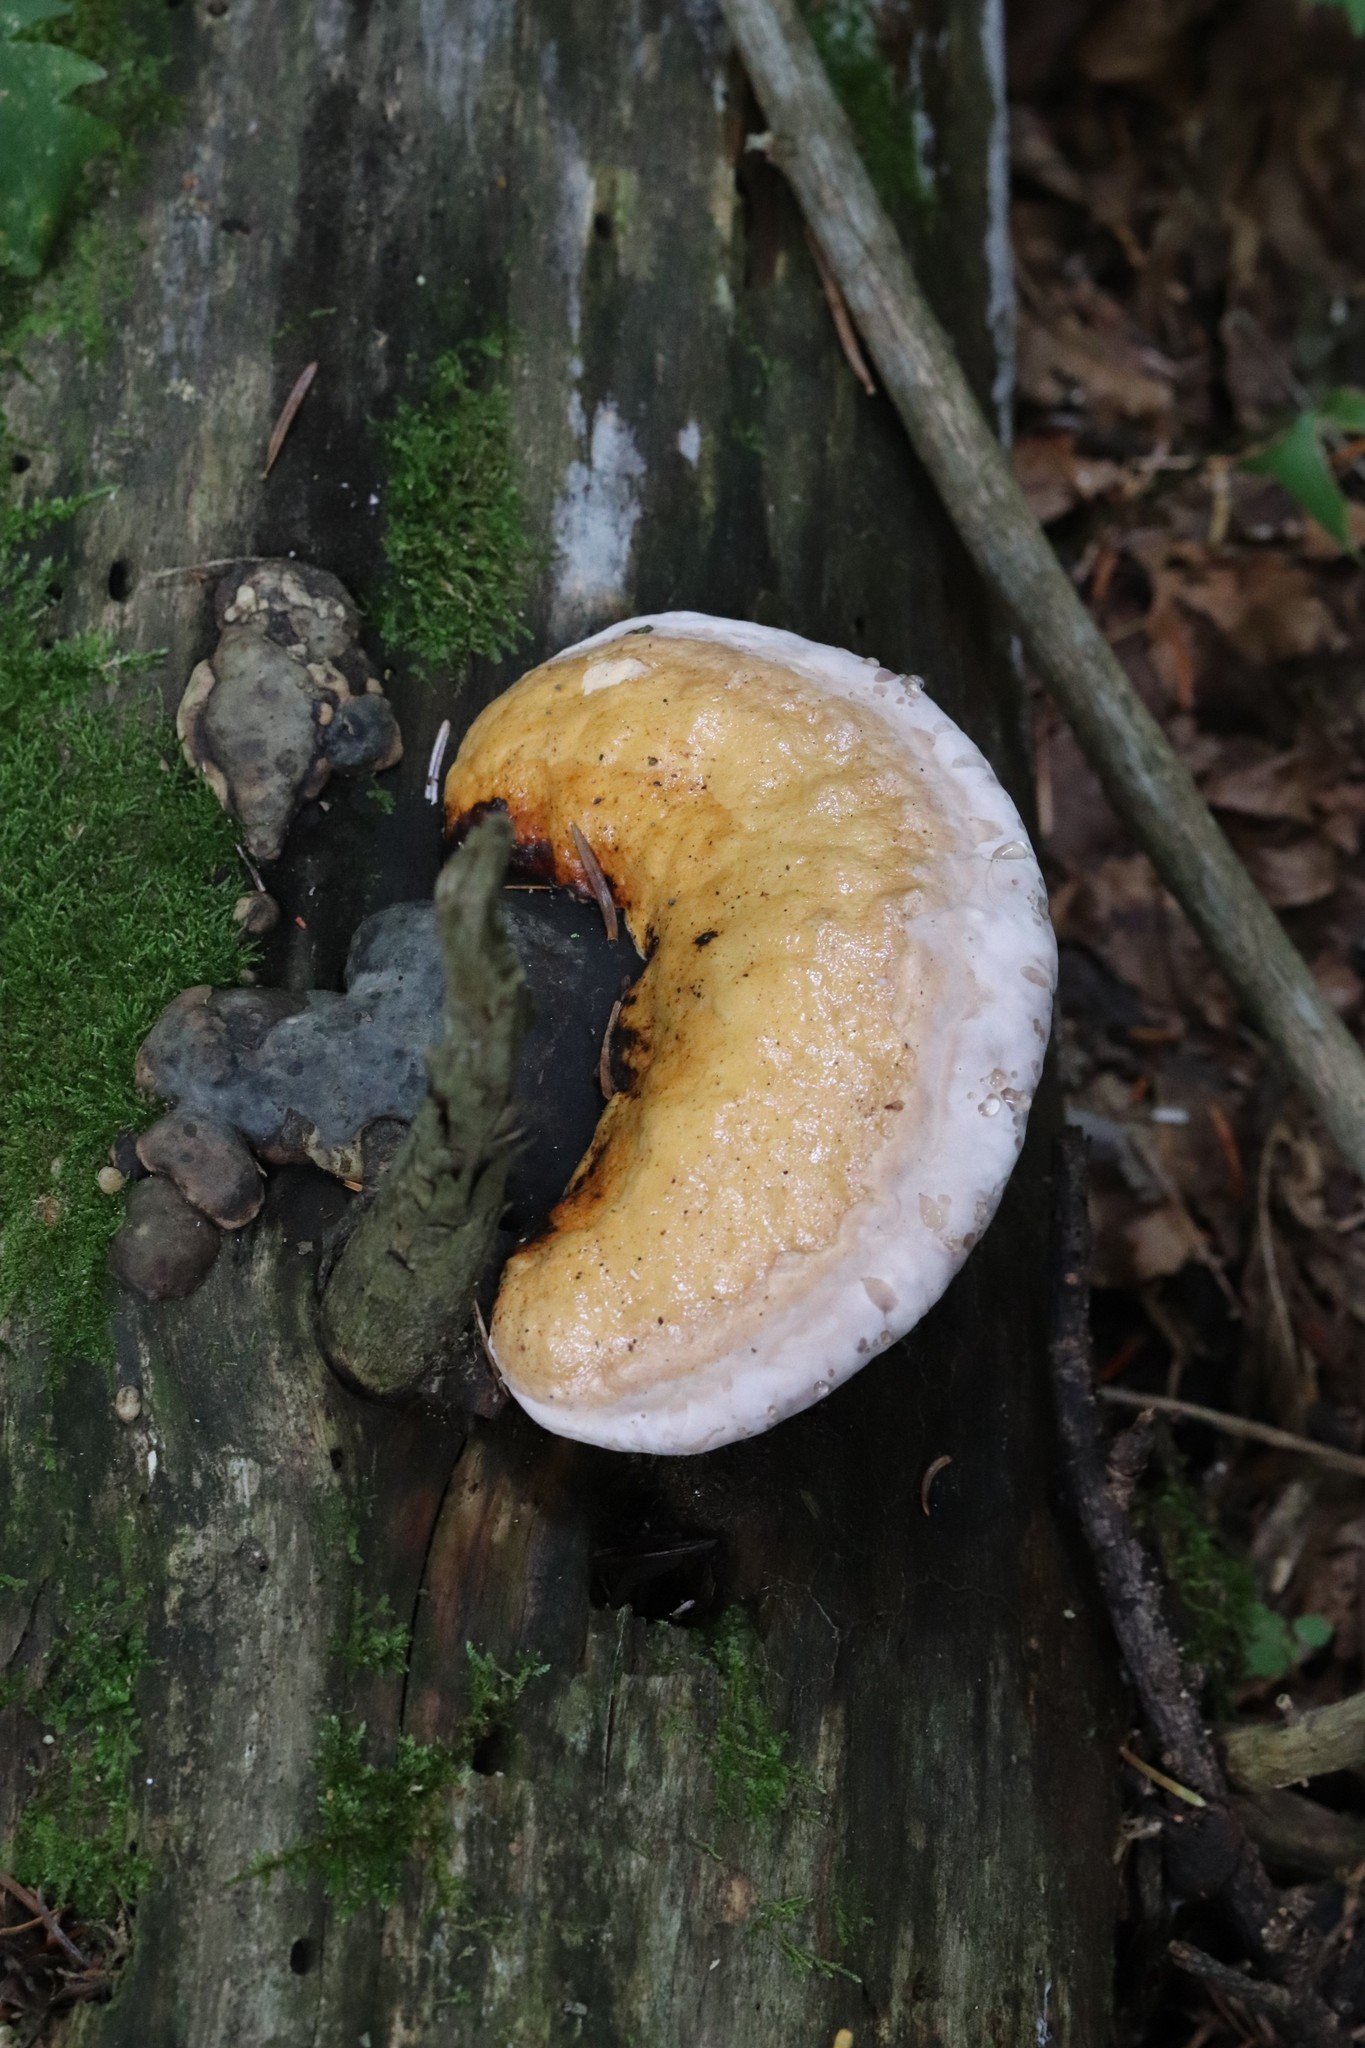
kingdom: Fungi
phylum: Basidiomycota
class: Agaricomycetes
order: Polyporales
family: Fomitopsidaceae
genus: Fomitopsis
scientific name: Fomitopsis pinicola
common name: Red-belted bracket
